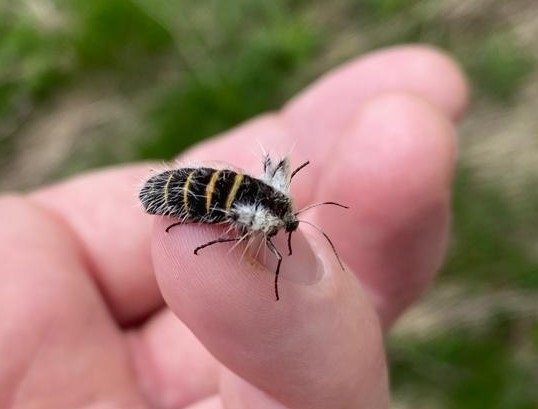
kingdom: Animalia
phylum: Arthropoda
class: Insecta
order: Lepidoptera
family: Geometridae
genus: Lycia
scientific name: Lycia alpina
